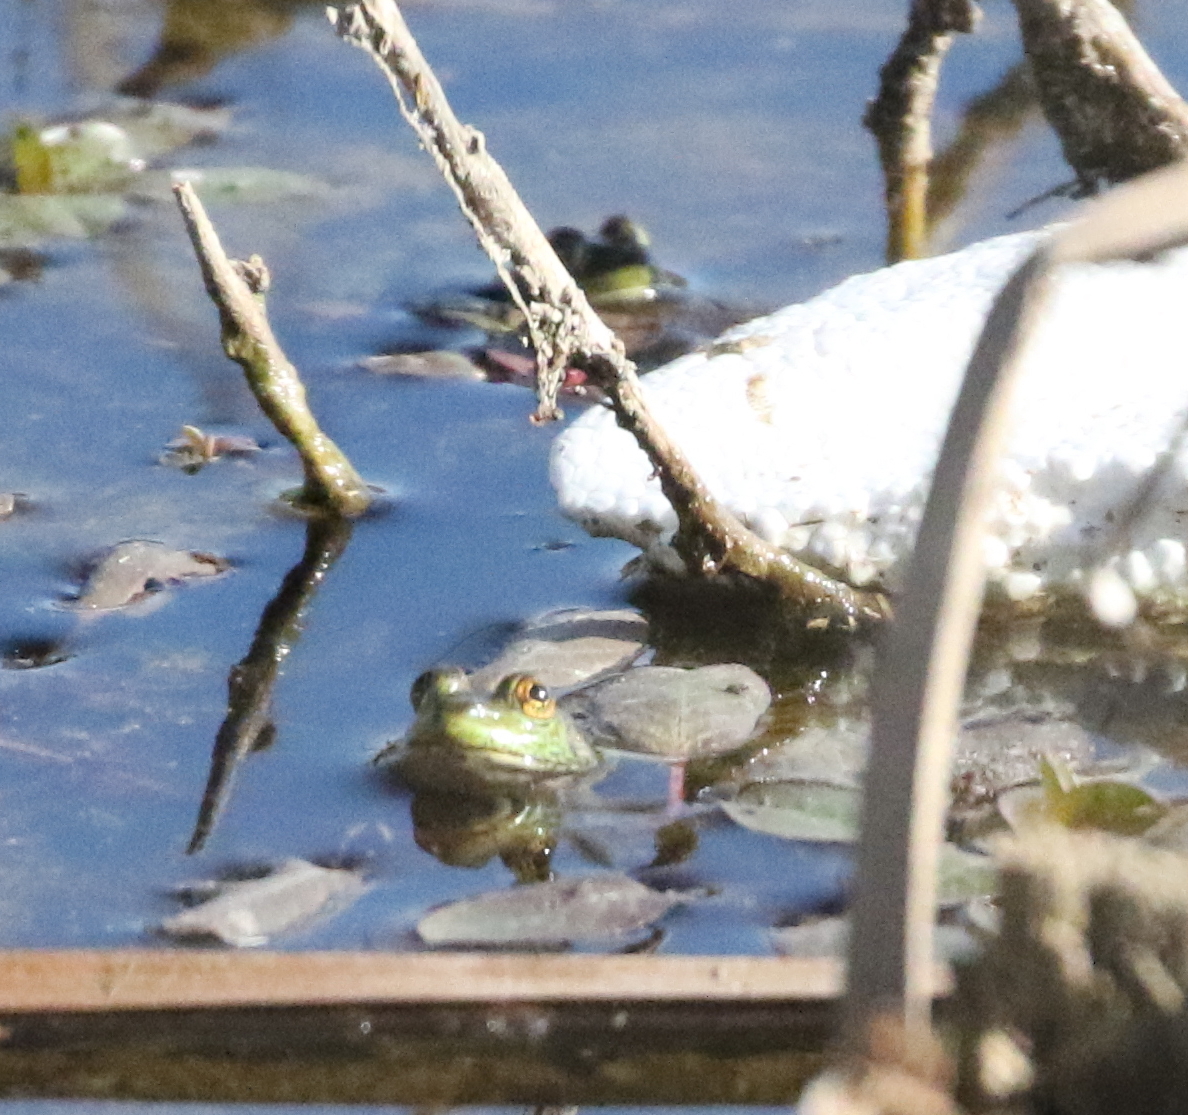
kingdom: Animalia
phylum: Chordata
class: Amphibia
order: Anura
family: Ranidae
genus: Lithobates
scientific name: Lithobates catesbeianus
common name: American bullfrog
